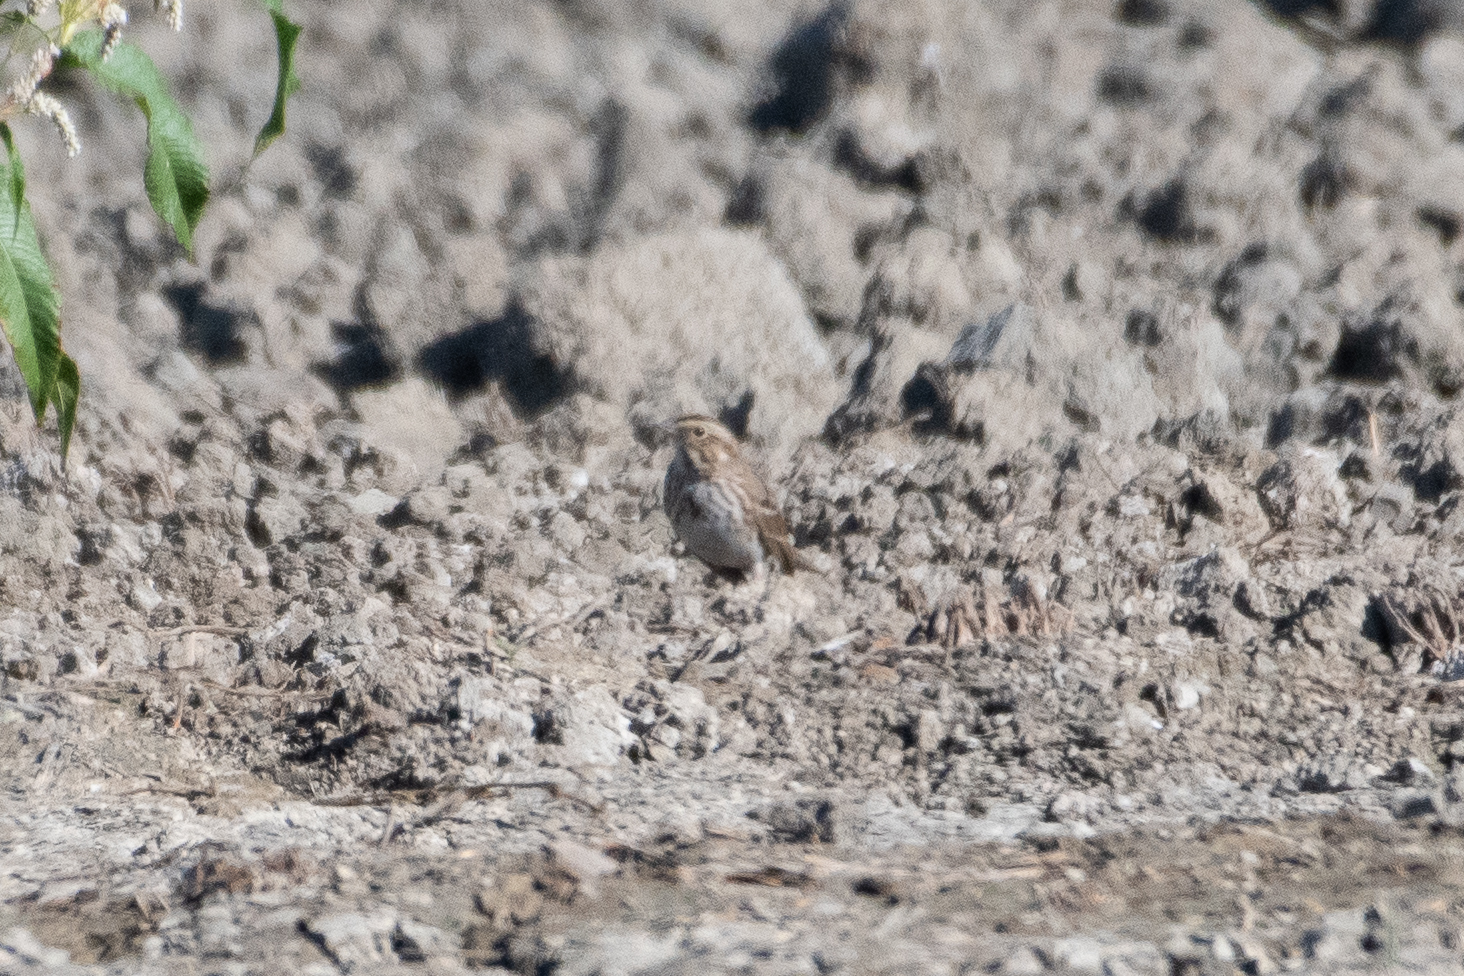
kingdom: Animalia
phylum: Chordata
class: Aves
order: Passeriformes
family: Passerellidae
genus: Passerculus
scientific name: Passerculus sandwichensis
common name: Savannah sparrow
